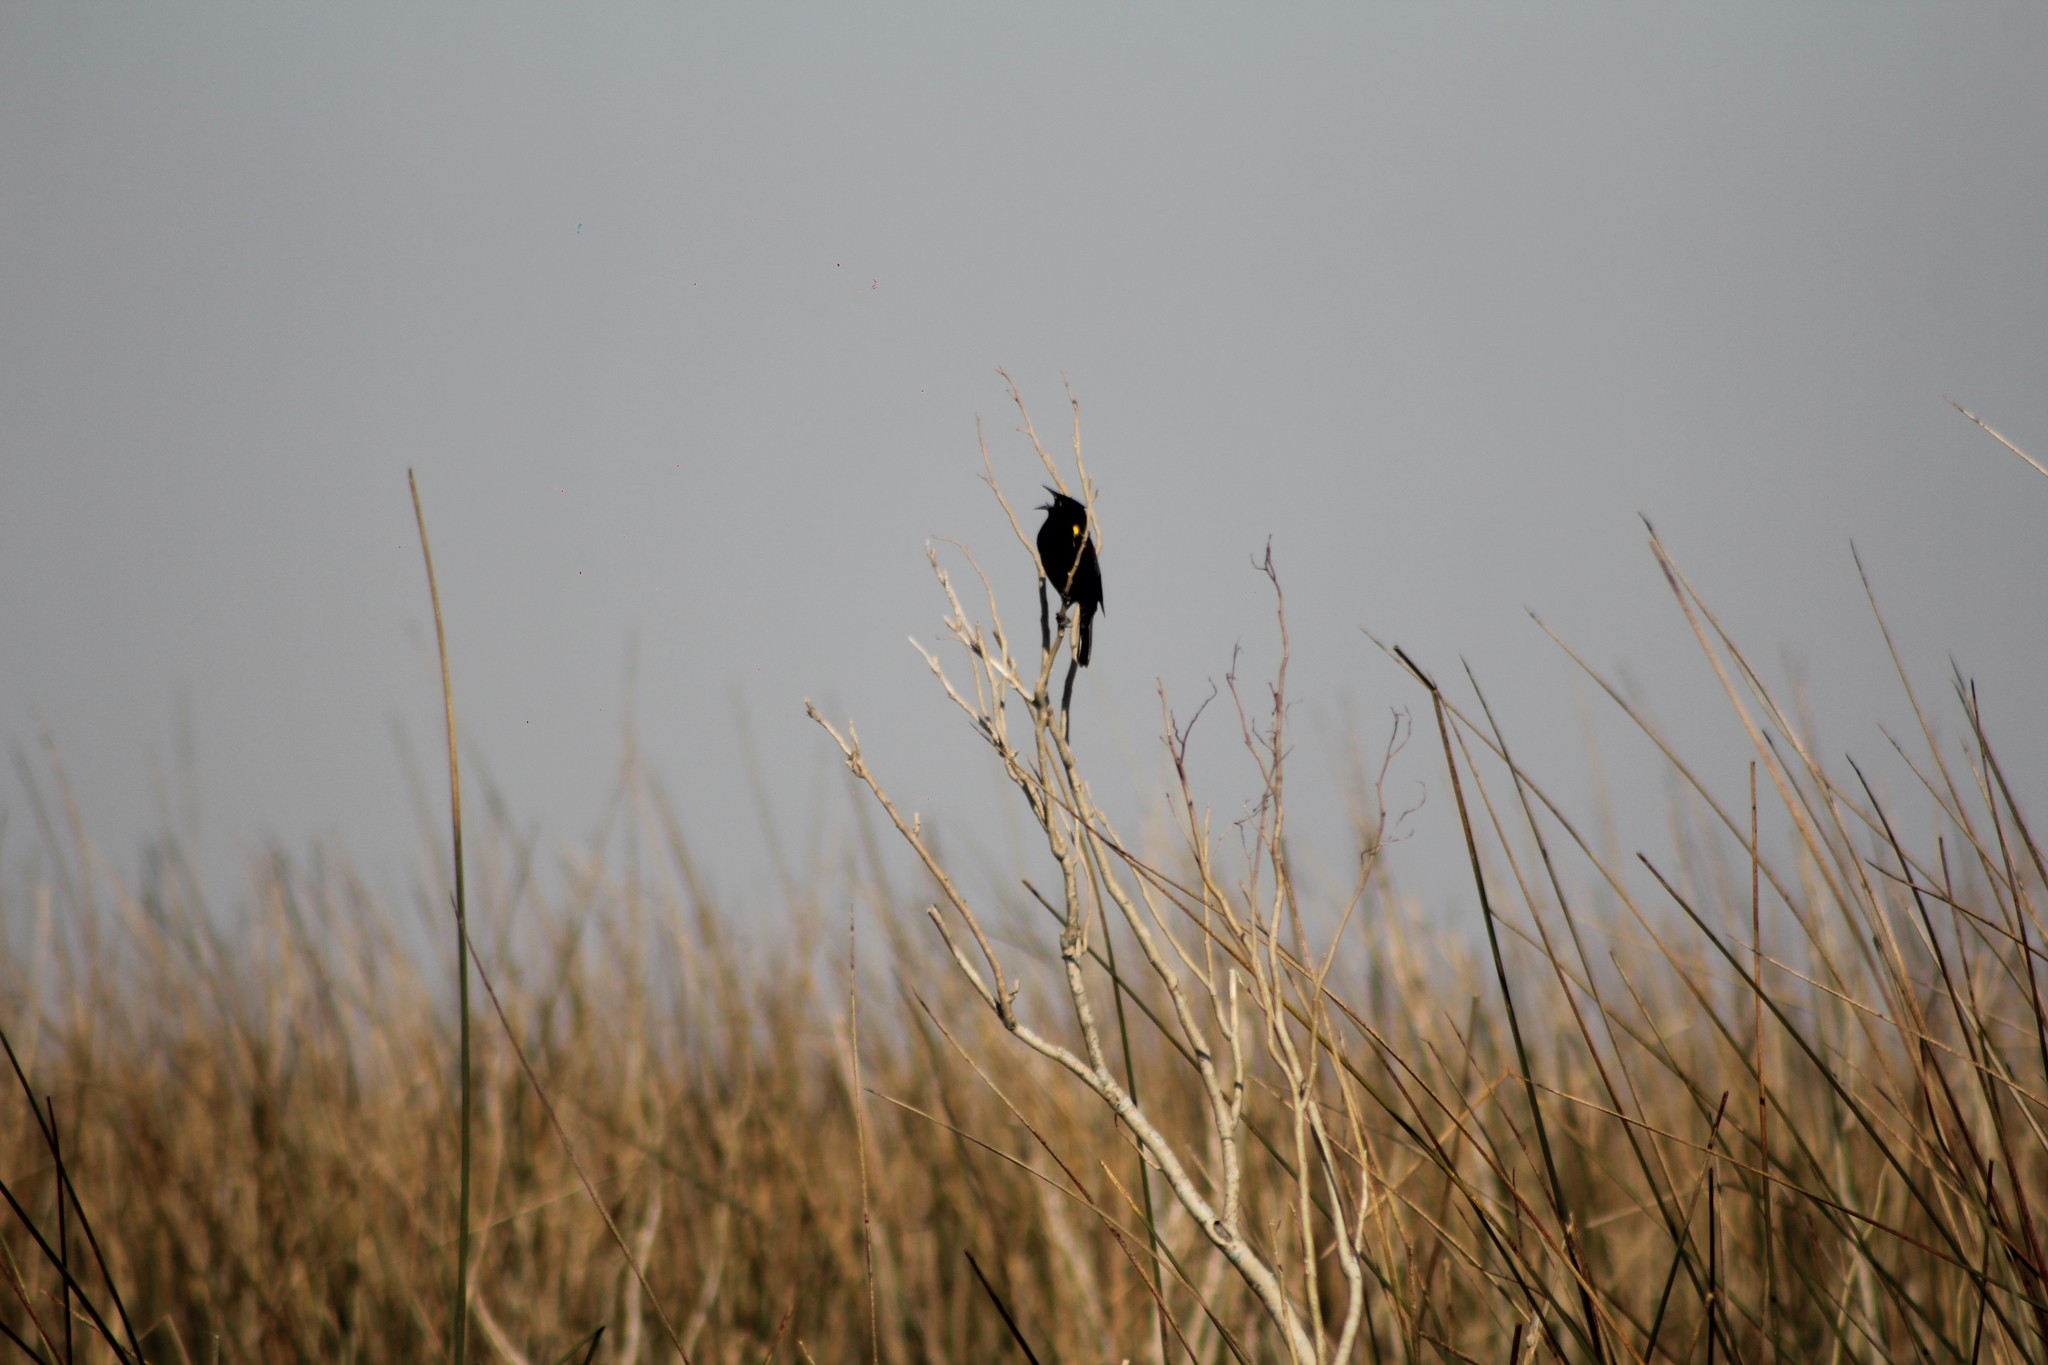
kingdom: Animalia
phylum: Chordata
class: Aves
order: Passeriformes
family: Icteridae
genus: Agelasticus
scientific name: Agelasticus thilius
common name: Yellow-winged blackbird
